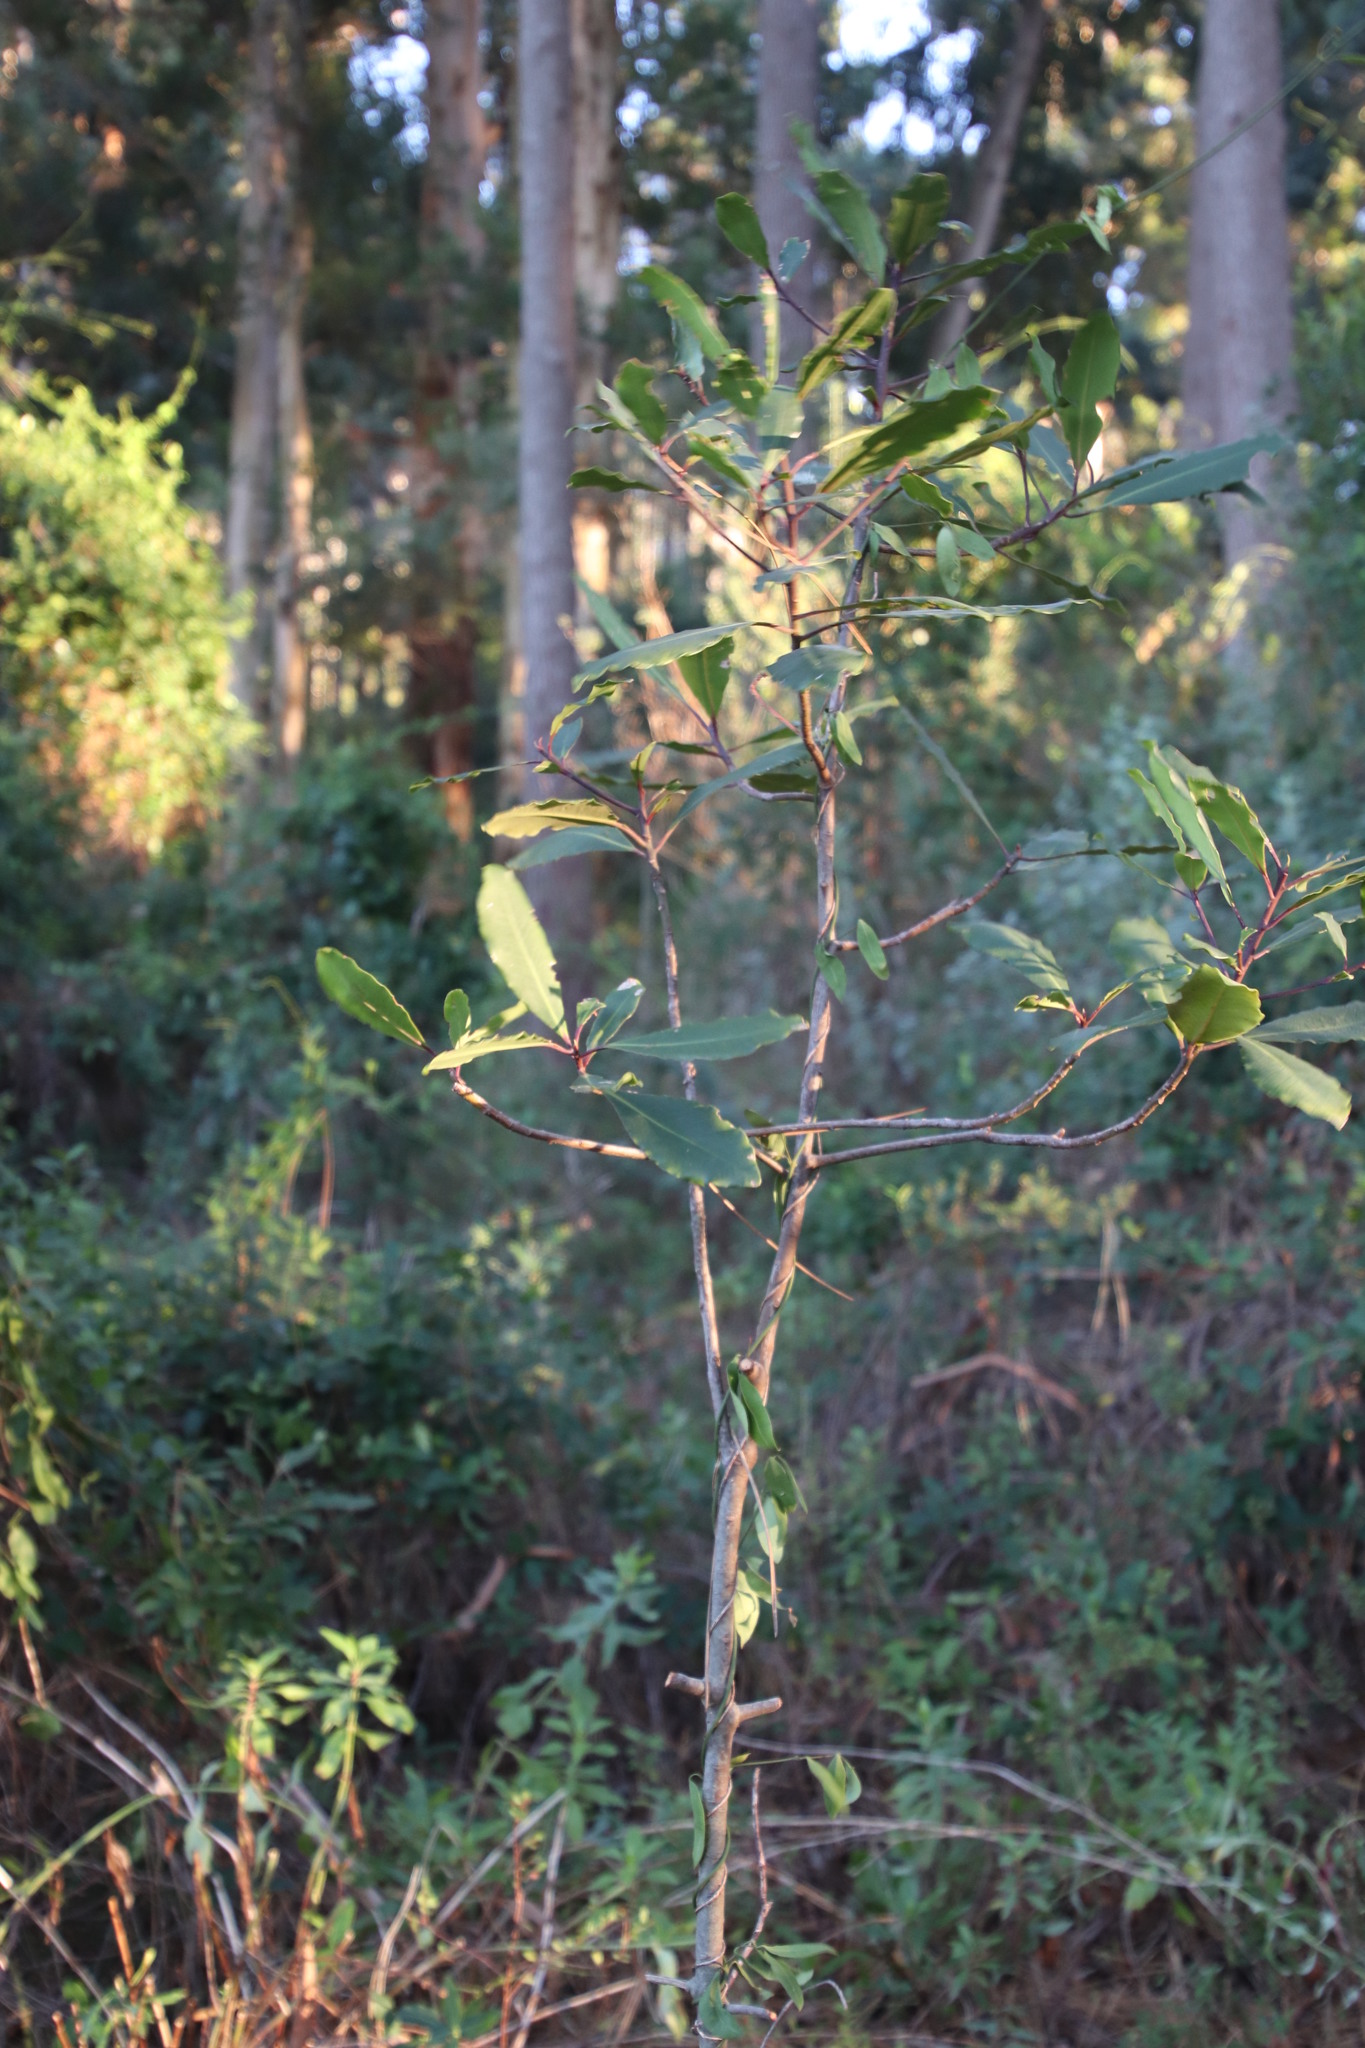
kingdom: Plantae
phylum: Tracheophyta
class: Magnoliopsida
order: Ericales
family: Primulaceae
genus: Myrsine
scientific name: Myrsine melanophloeos
